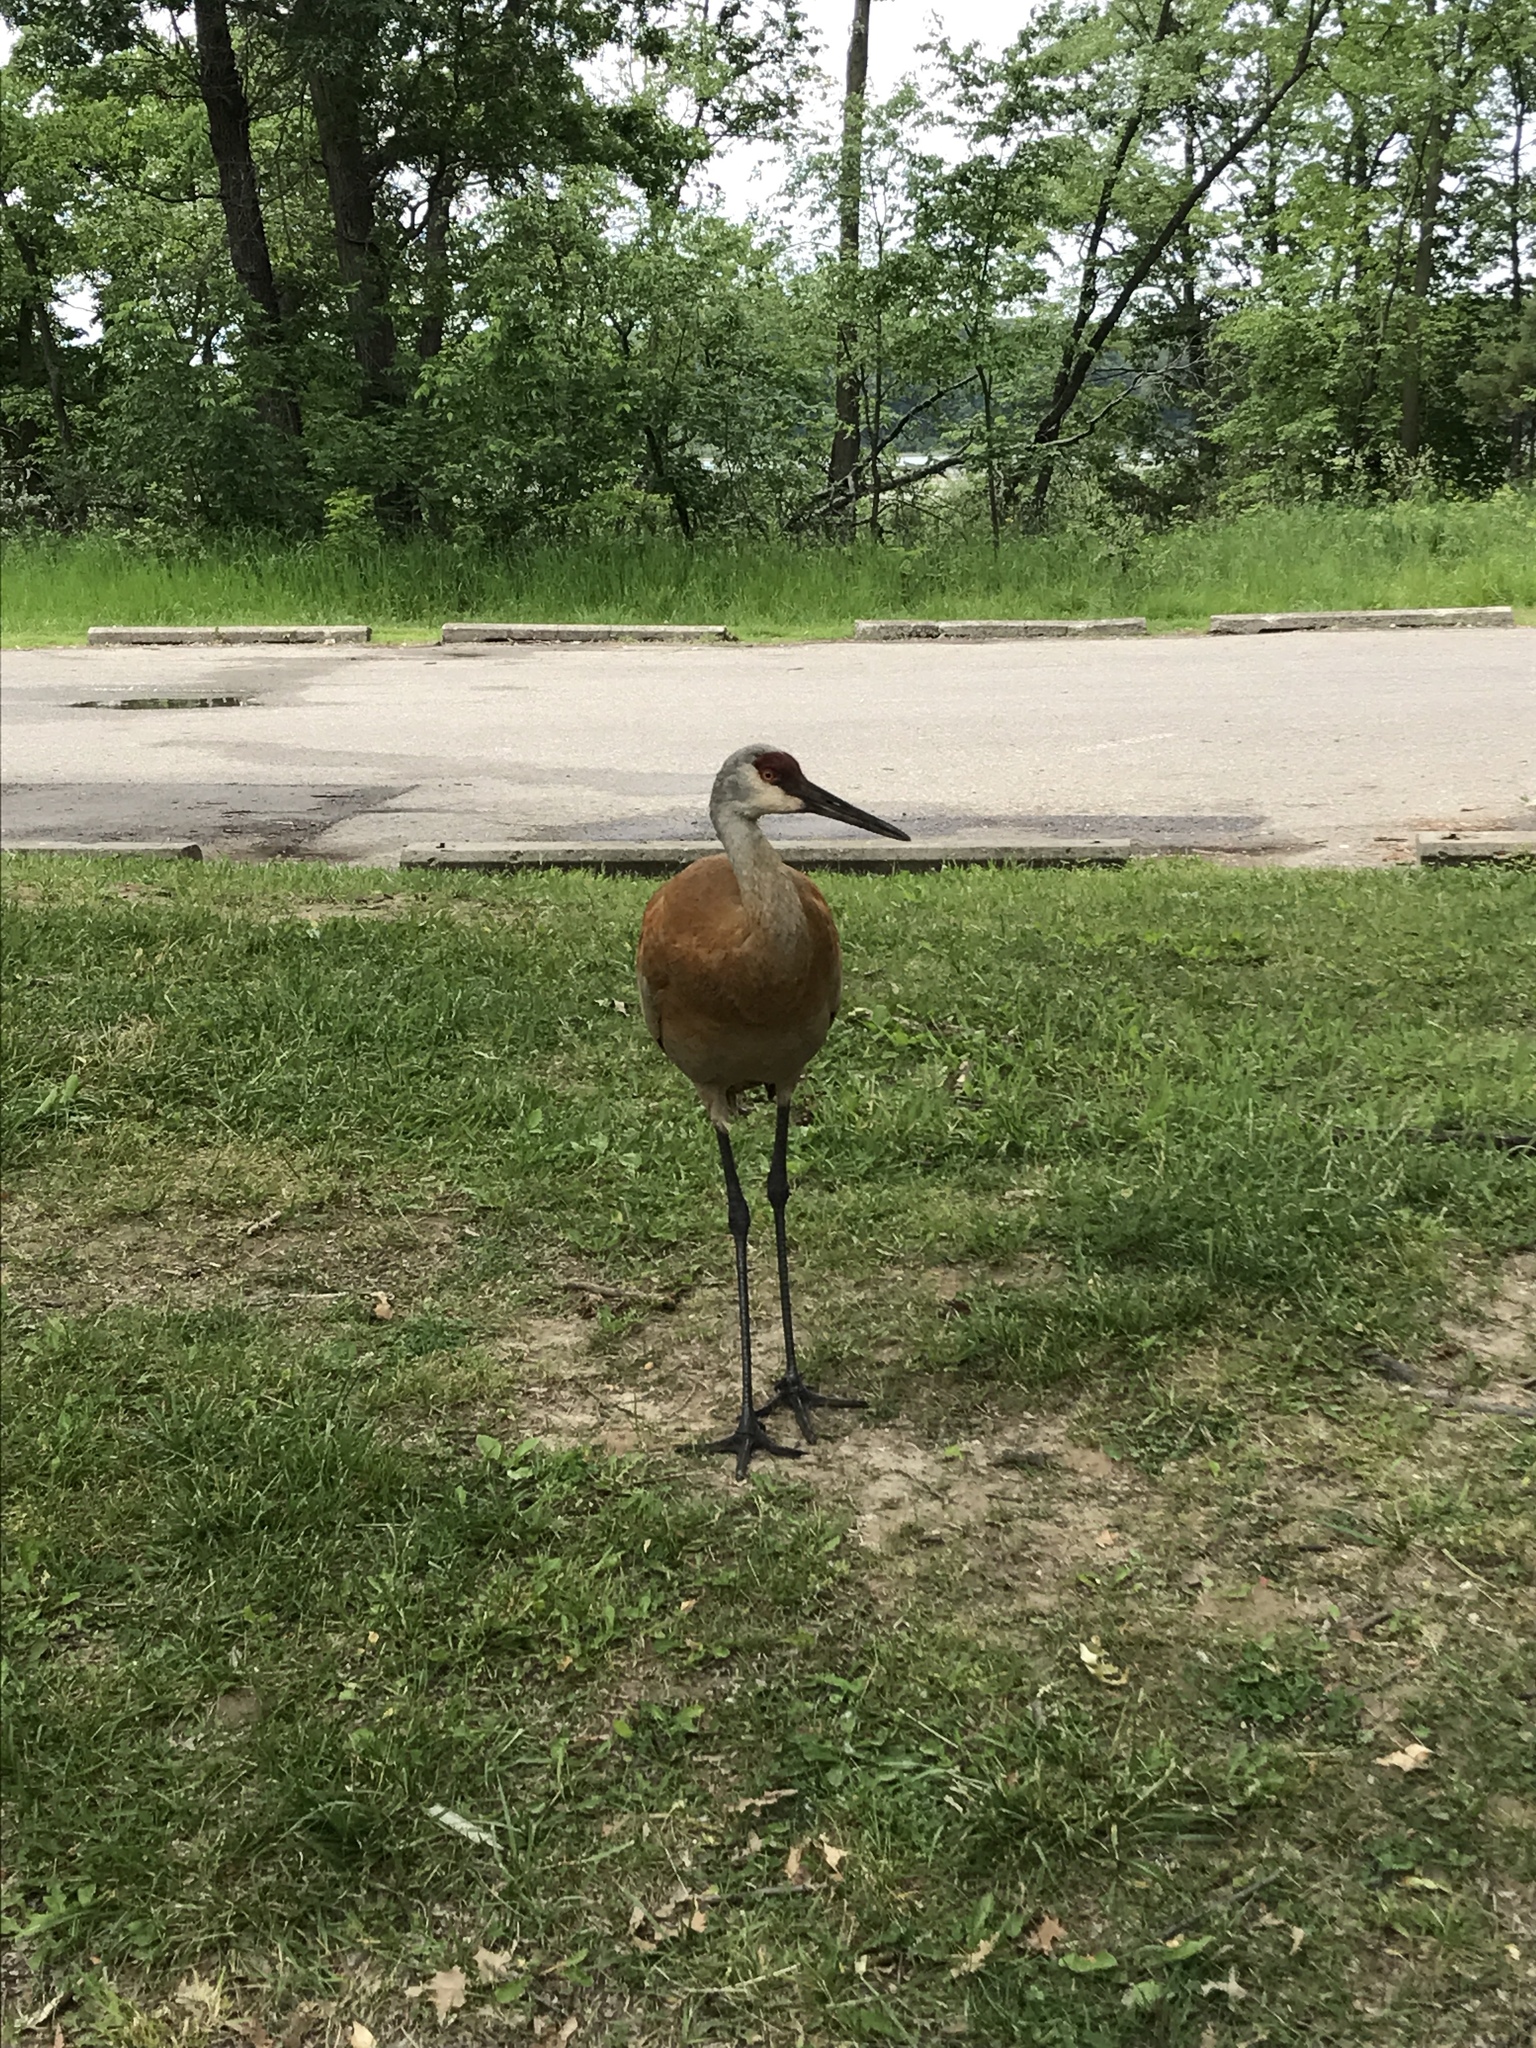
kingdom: Animalia
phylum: Chordata
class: Aves
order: Gruiformes
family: Gruidae
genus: Grus
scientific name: Grus canadensis
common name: Sandhill crane
